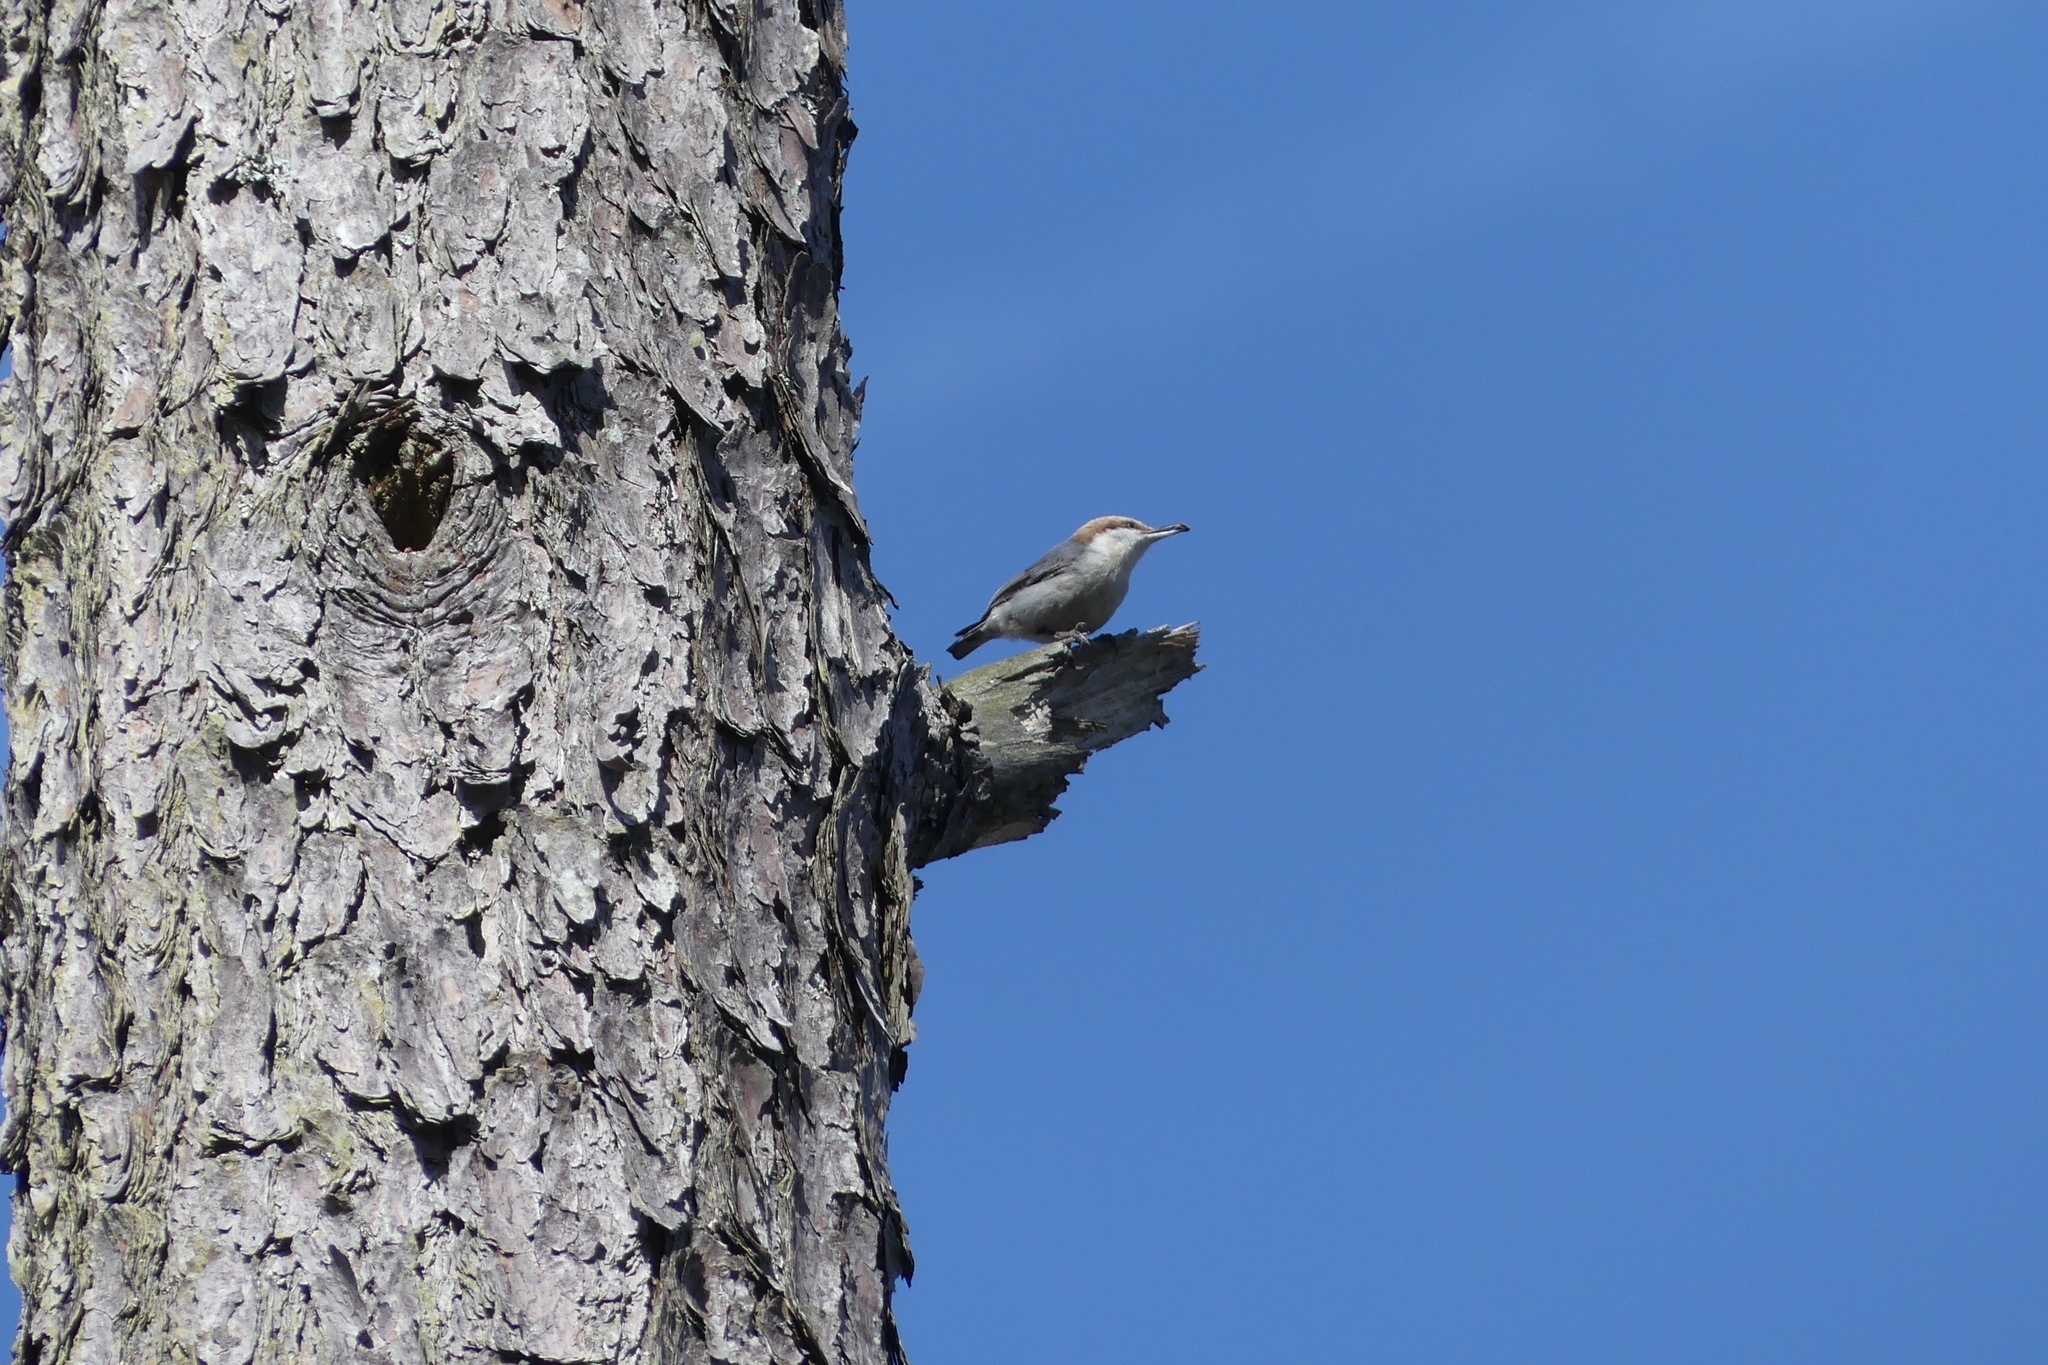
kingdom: Animalia
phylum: Chordata
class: Aves
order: Passeriformes
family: Sittidae
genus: Sitta
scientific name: Sitta pusilla
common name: Brown-headed nuthatch
